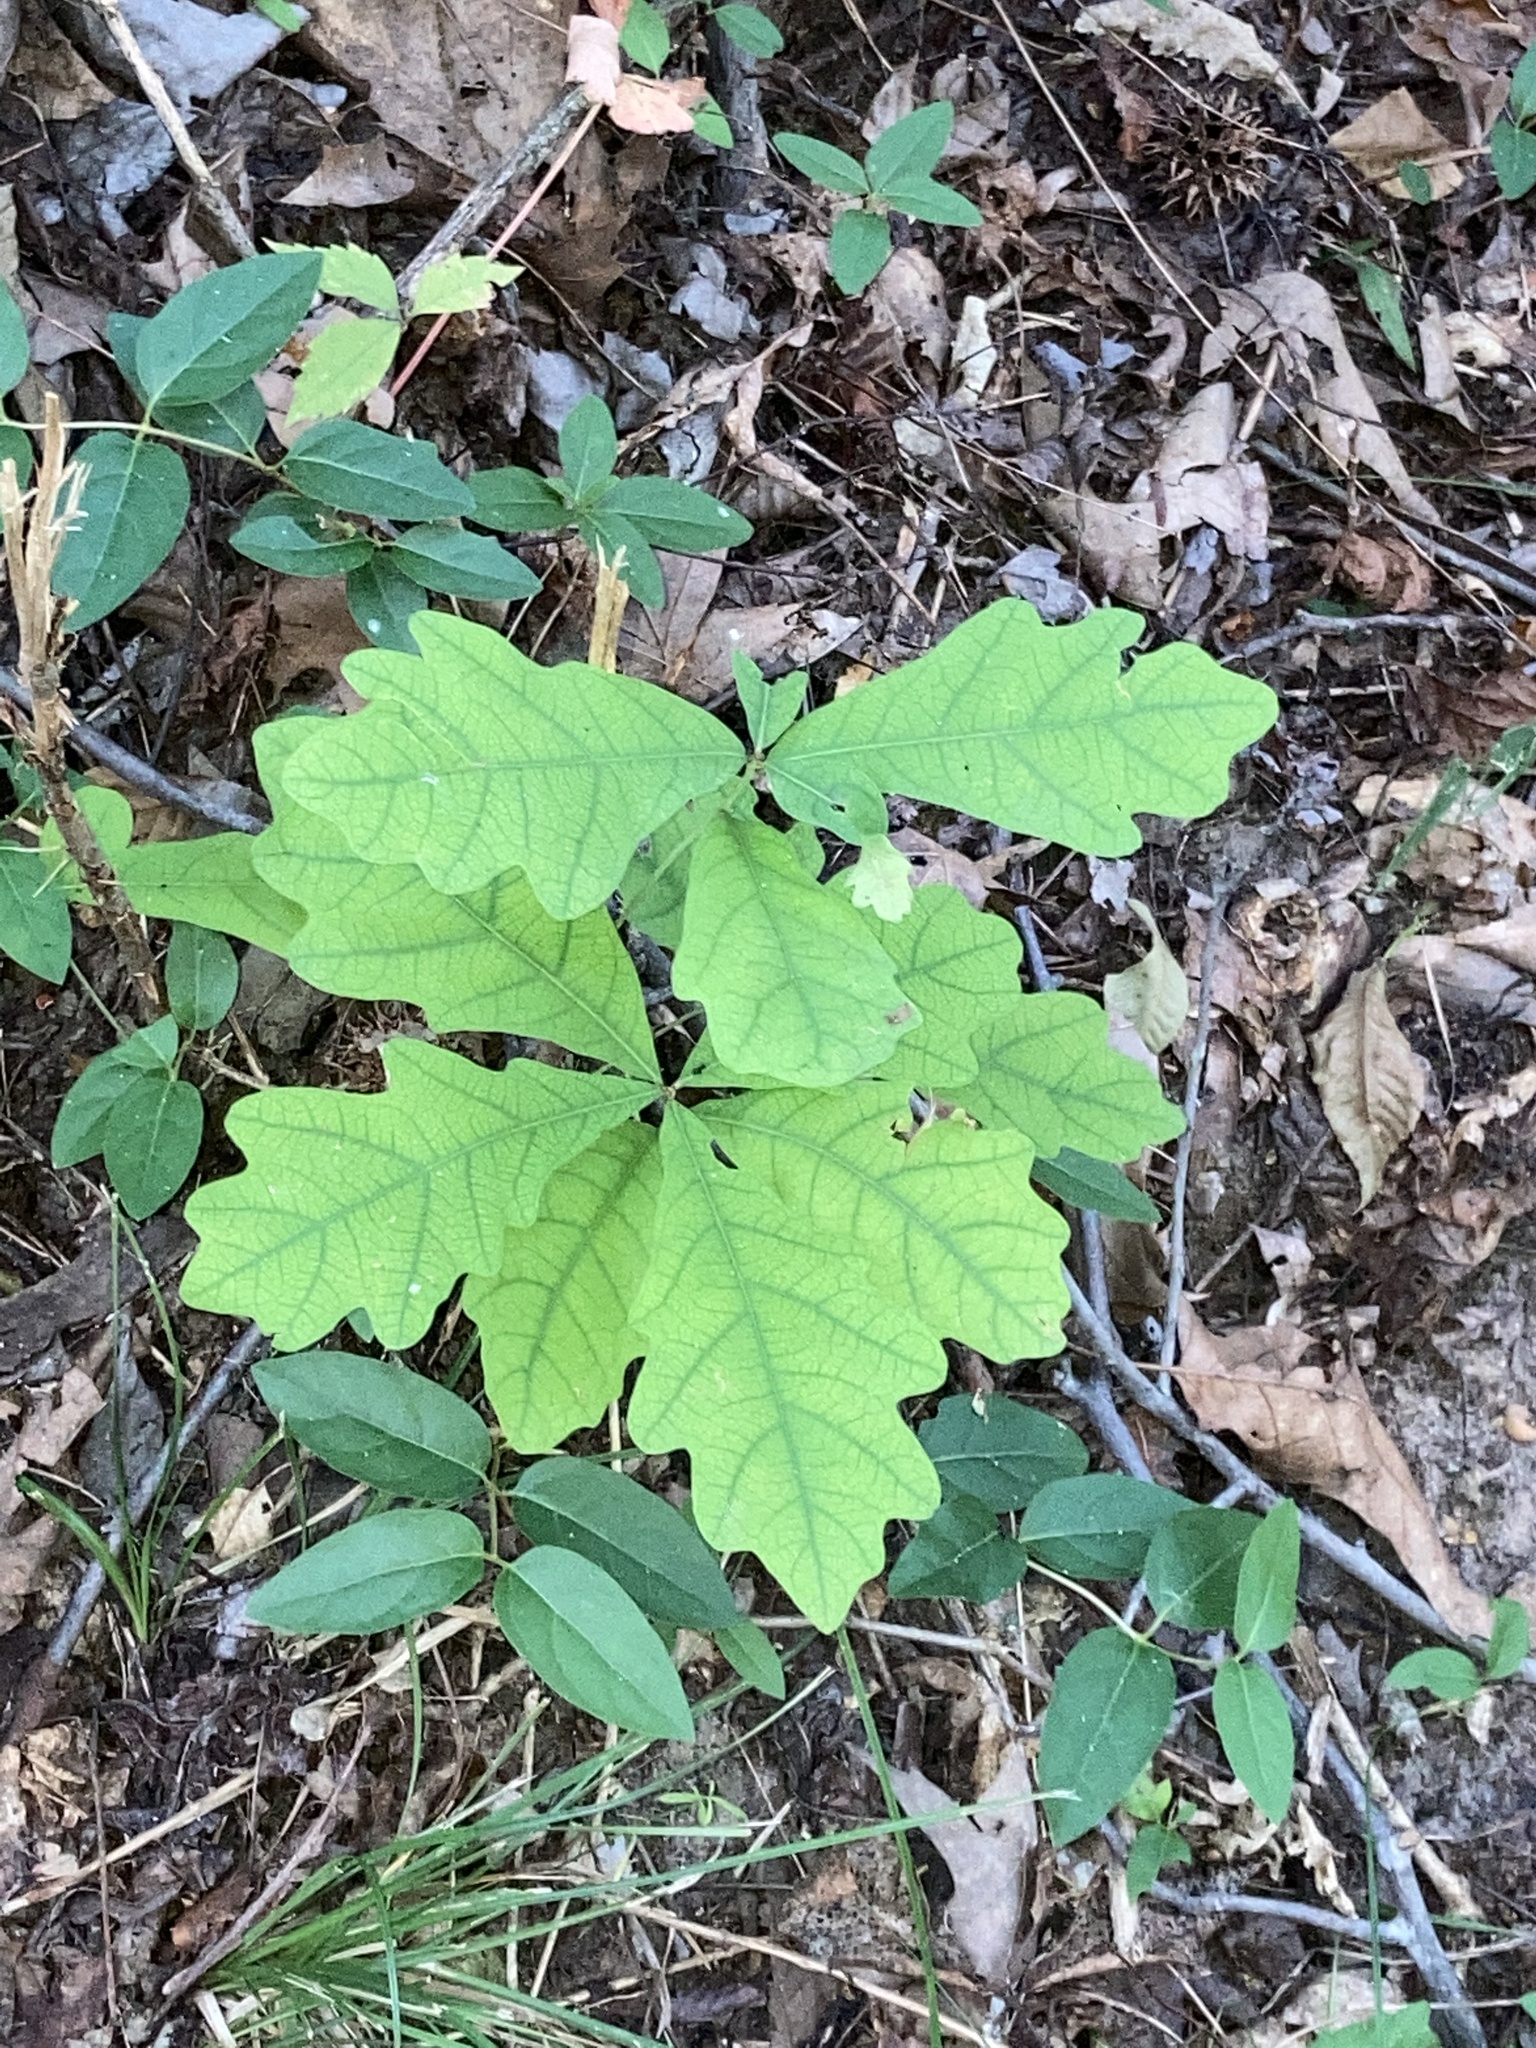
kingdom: Plantae
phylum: Tracheophyta
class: Magnoliopsida
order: Fagales
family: Fagaceae
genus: Quercus
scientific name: Quercus alba
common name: White oak
